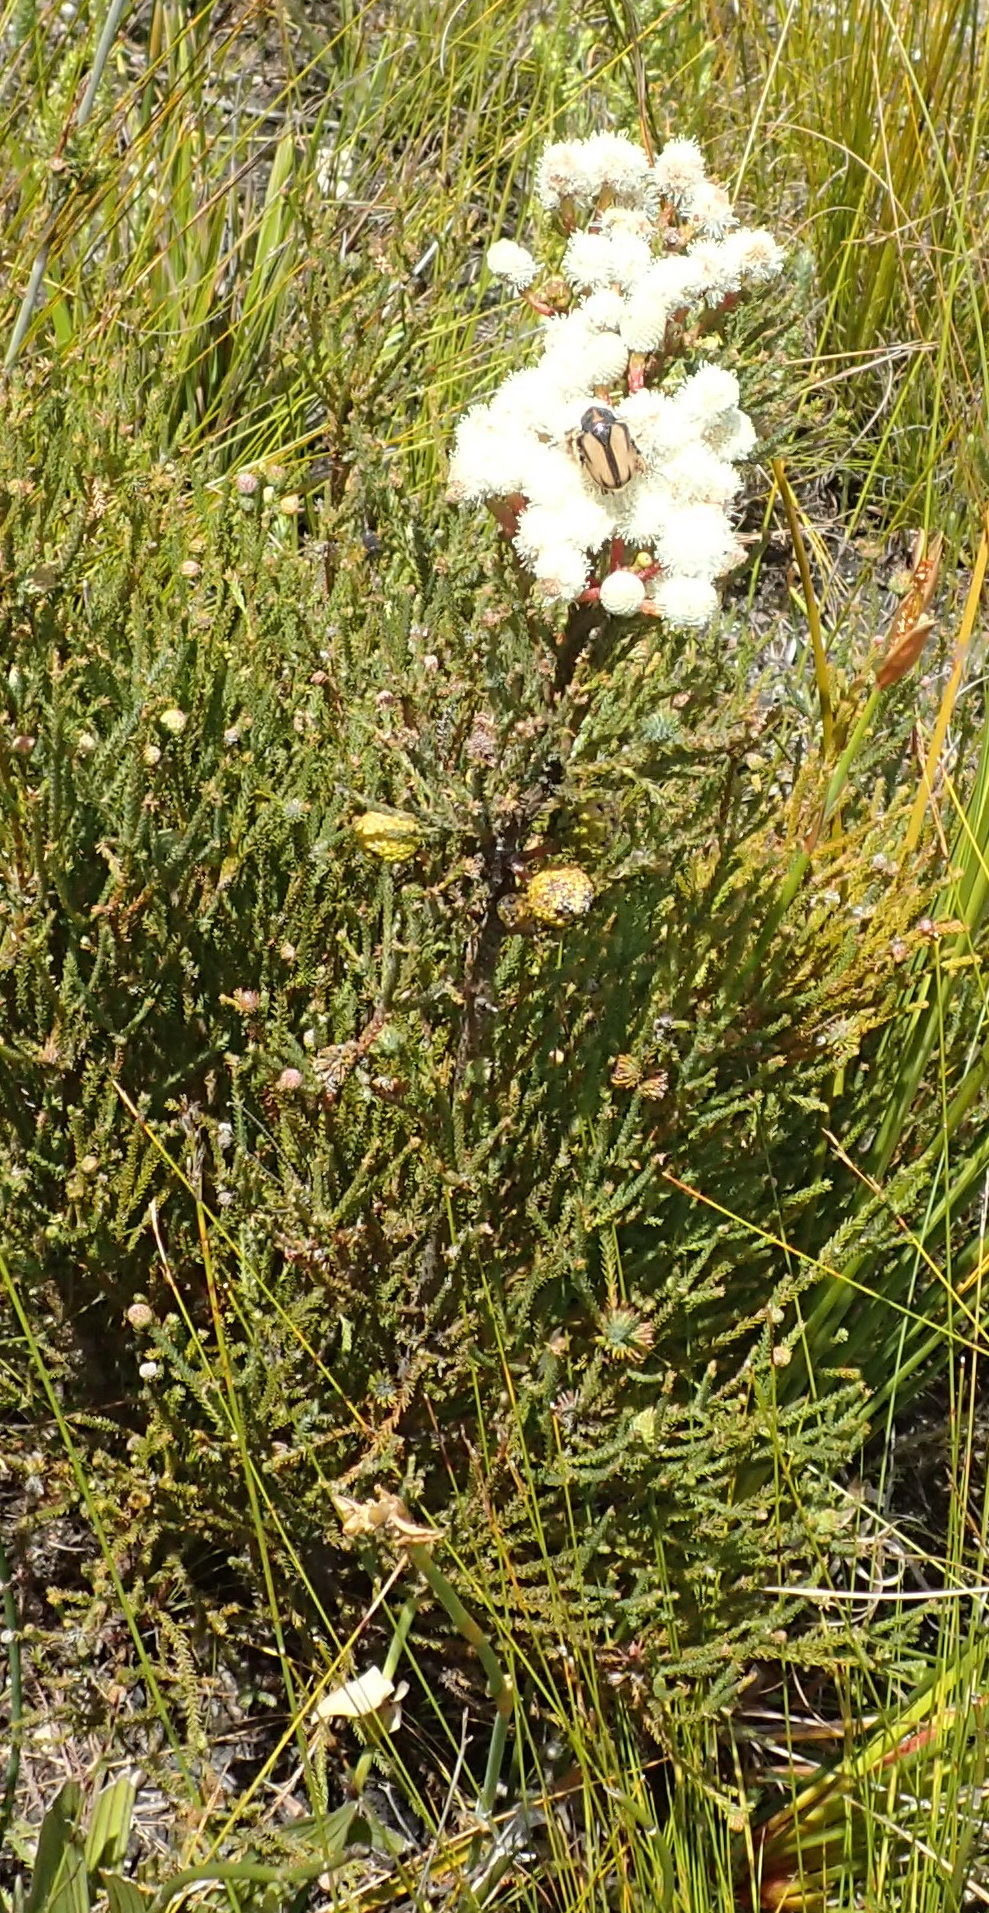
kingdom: Plantae
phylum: Tracheophyta
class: Magnoliopsida
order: Bruniales
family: Bruniaceae
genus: Berzelia
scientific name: Berzelia intermedia
